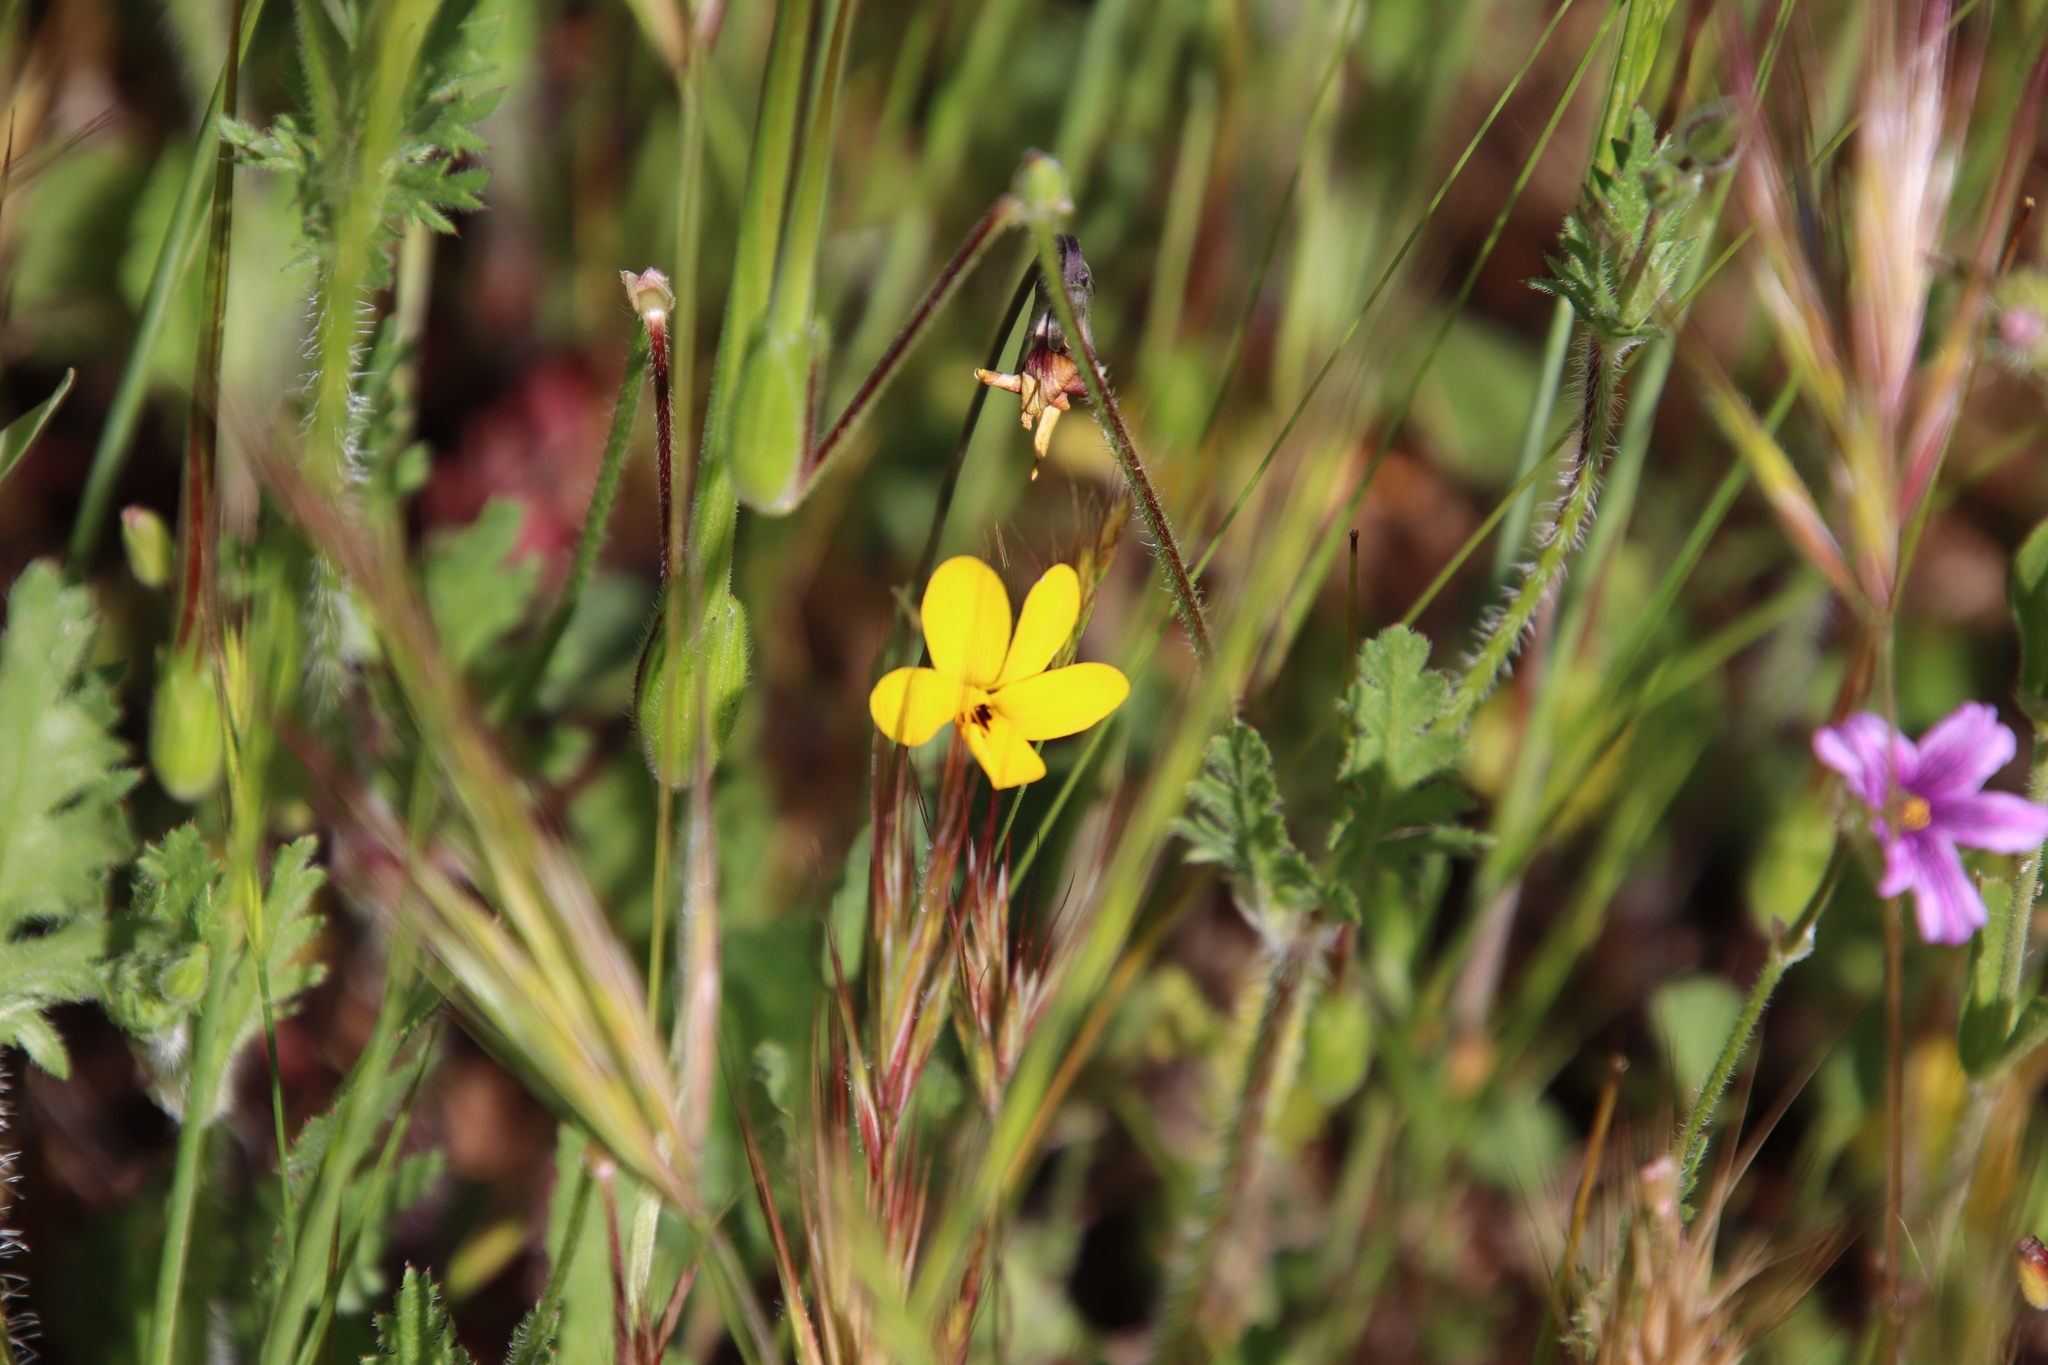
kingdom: Plantae
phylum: Tracheophyta
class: Magnoliopsida
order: Malpighiales
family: Violaceae
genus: Viola
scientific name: Viola pedunculata
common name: California golden violet
